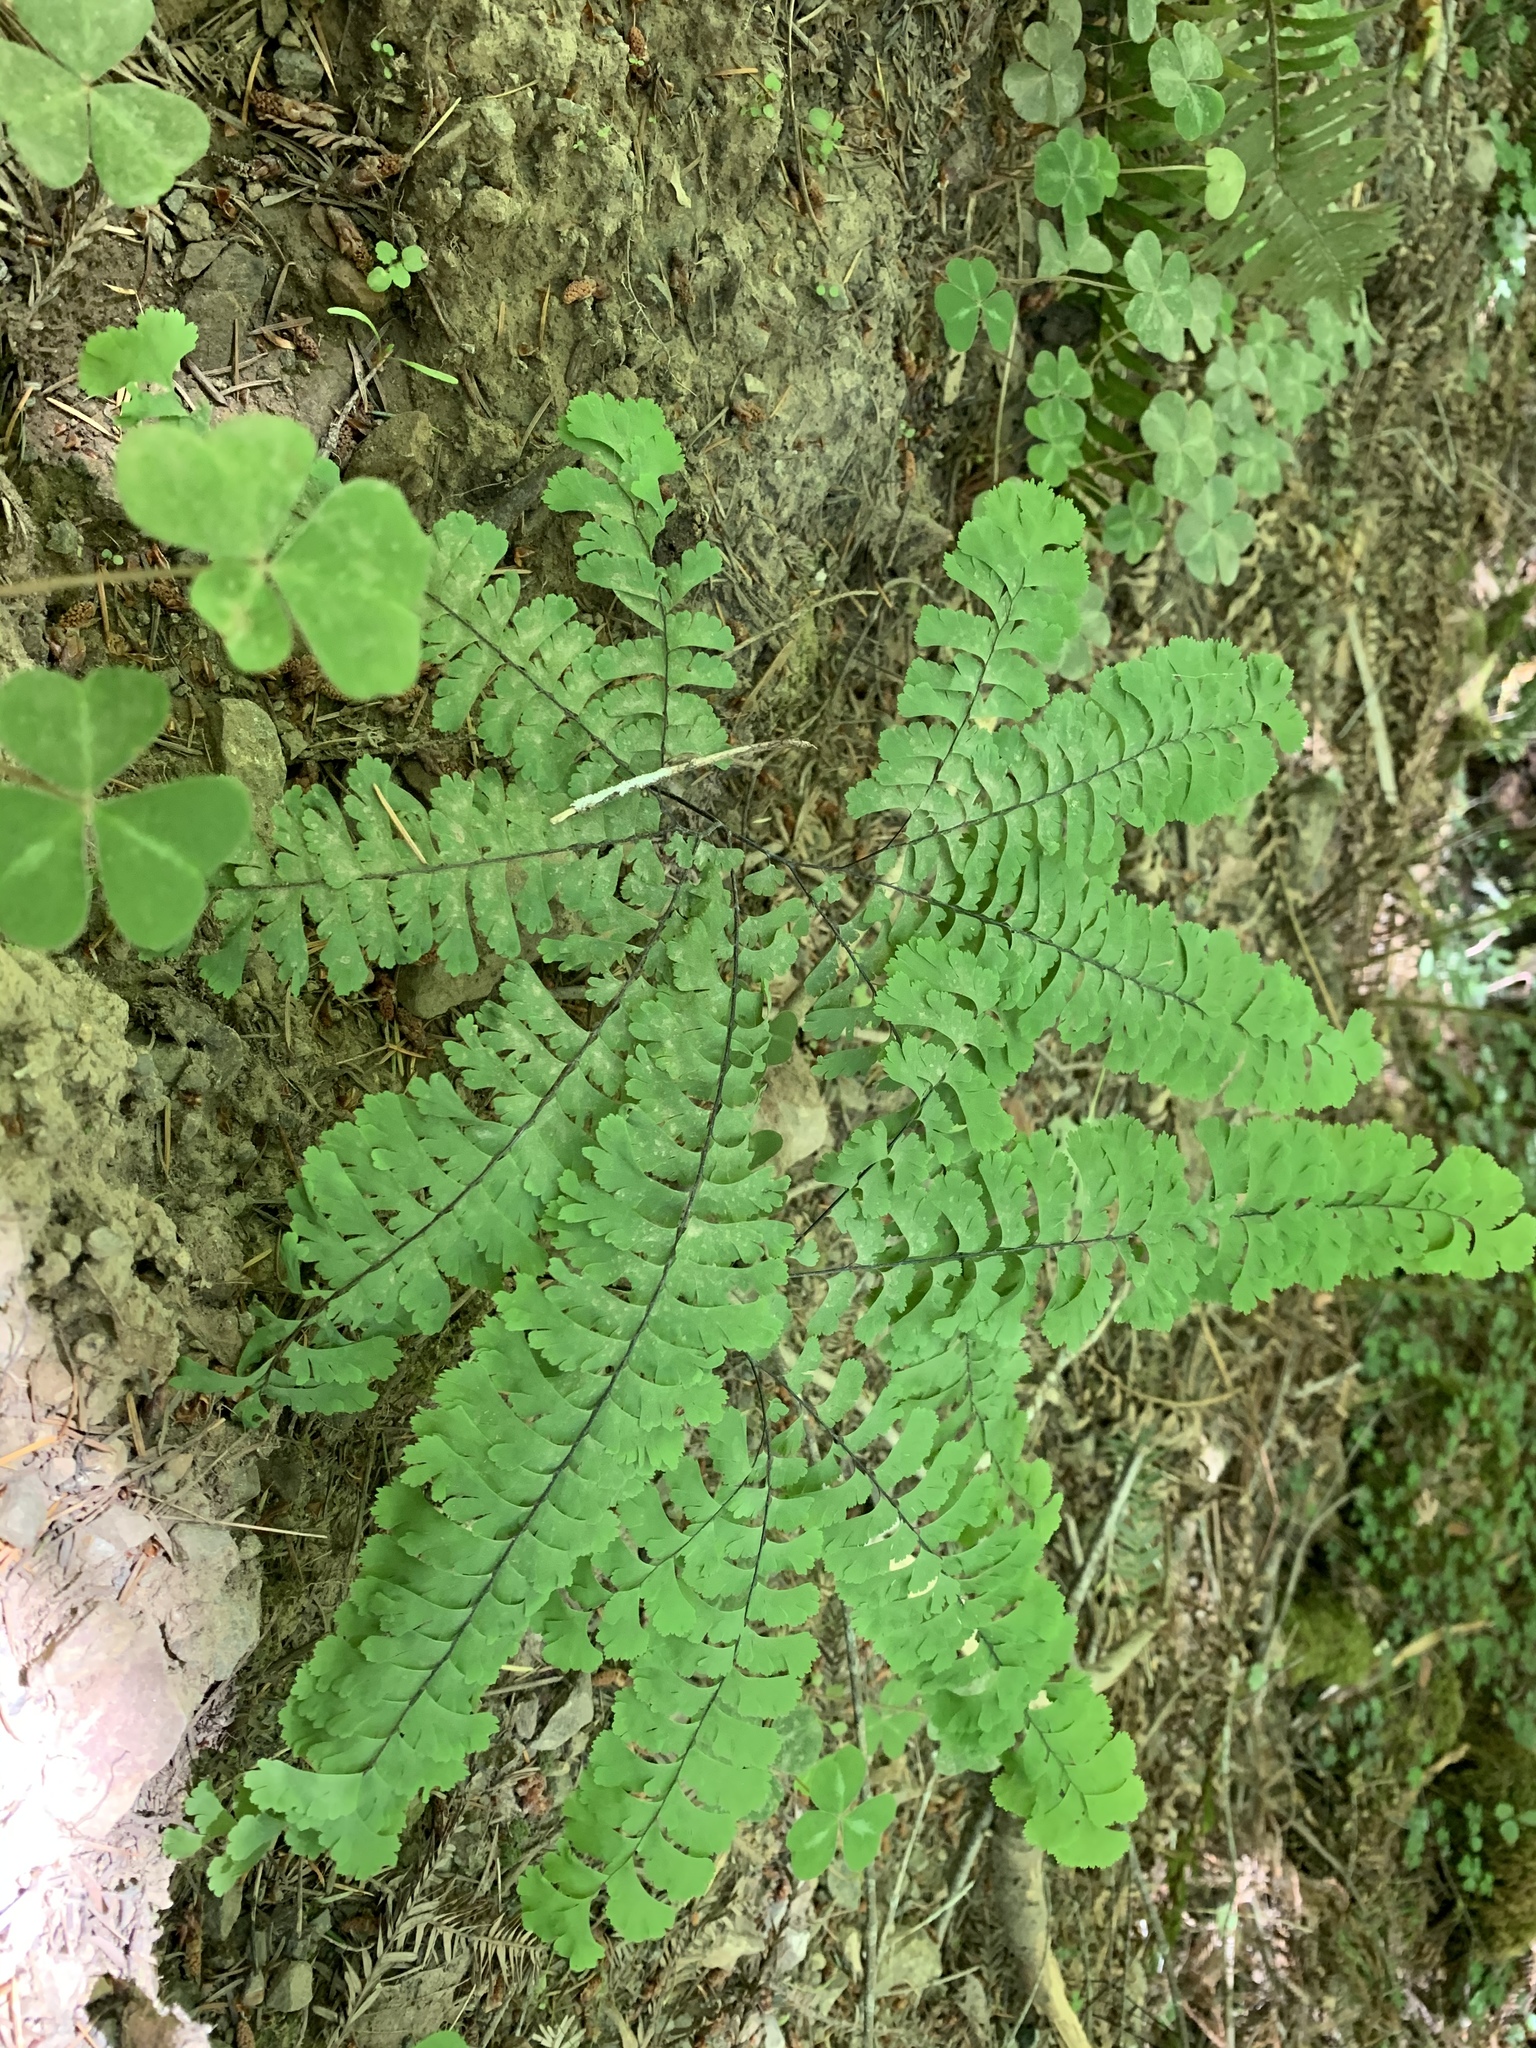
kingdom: Plantae
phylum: Tracheophyta
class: Polypodiopsida
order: Polypodiales
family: Pteridaceae
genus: Adiantum
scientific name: Adiantum aleuticum
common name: Aleutian maidenhair fern
